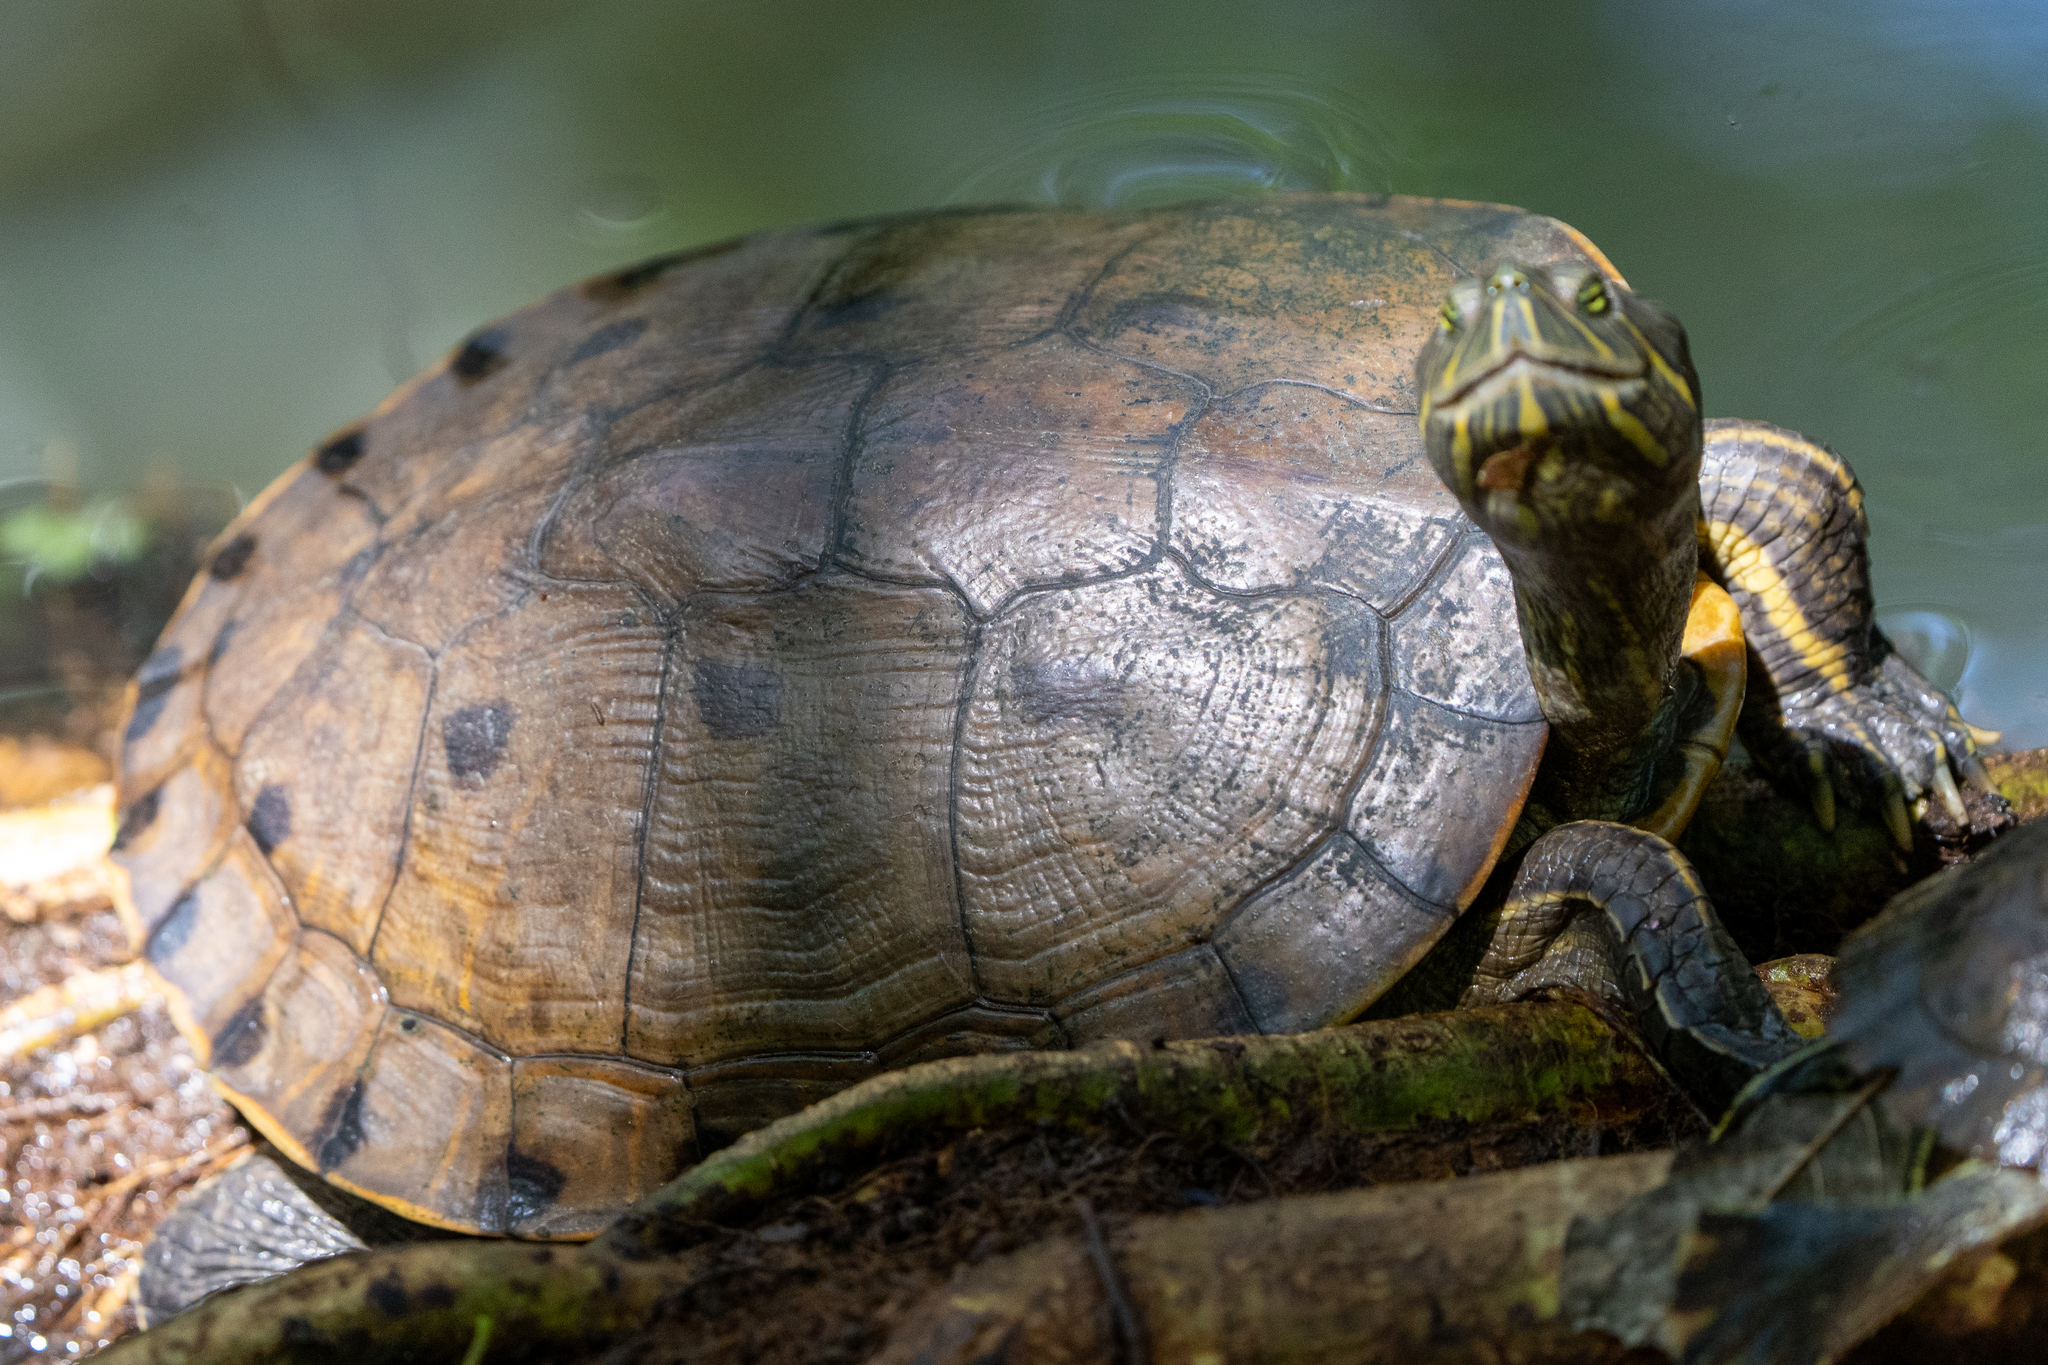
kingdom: Animalia
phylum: Chordata
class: Testudines
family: Emydidae
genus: Trachemys
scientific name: Trachemys grayi
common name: Gray's slider
